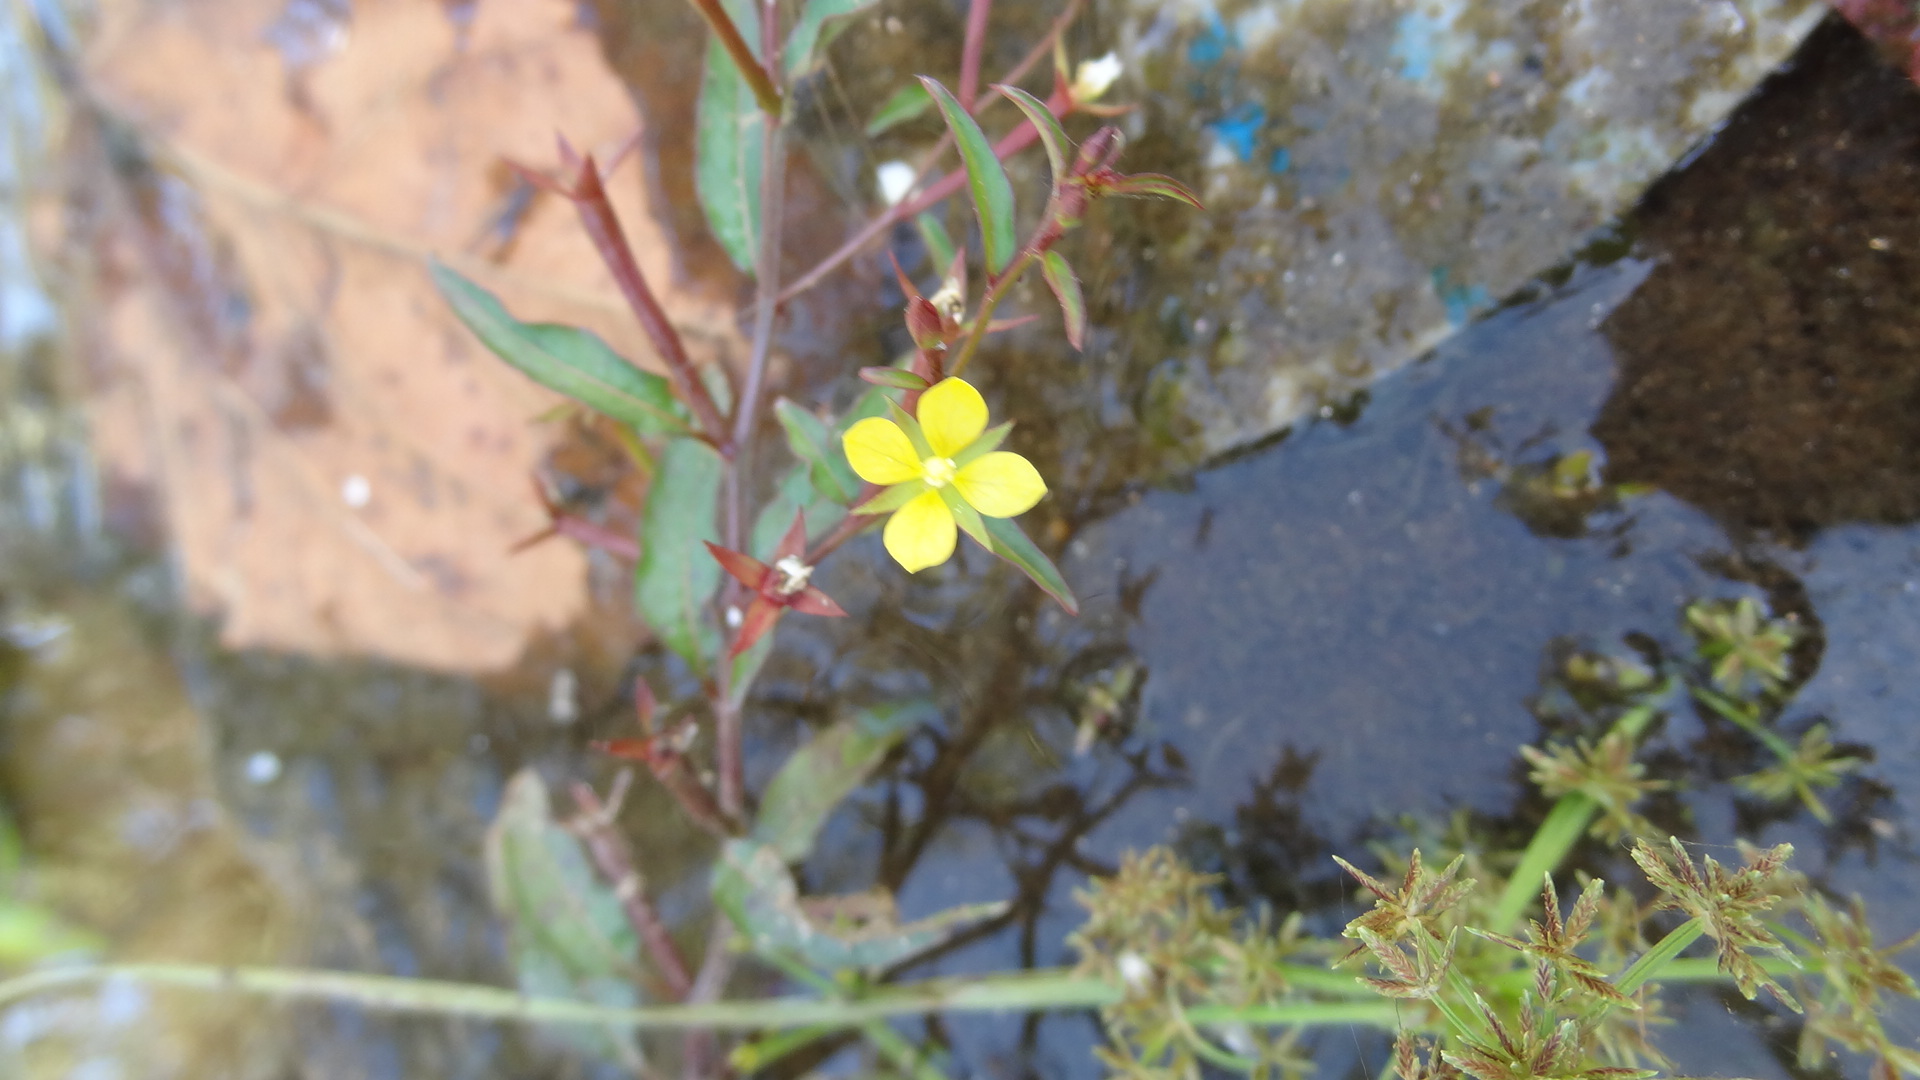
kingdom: Plantae
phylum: Tracheophyta
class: Magnoliopsida
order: Myrtales
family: Onagraceae
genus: Ludwigia
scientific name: Ludwigia hyssopifolia
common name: Linear leaf water primrose
